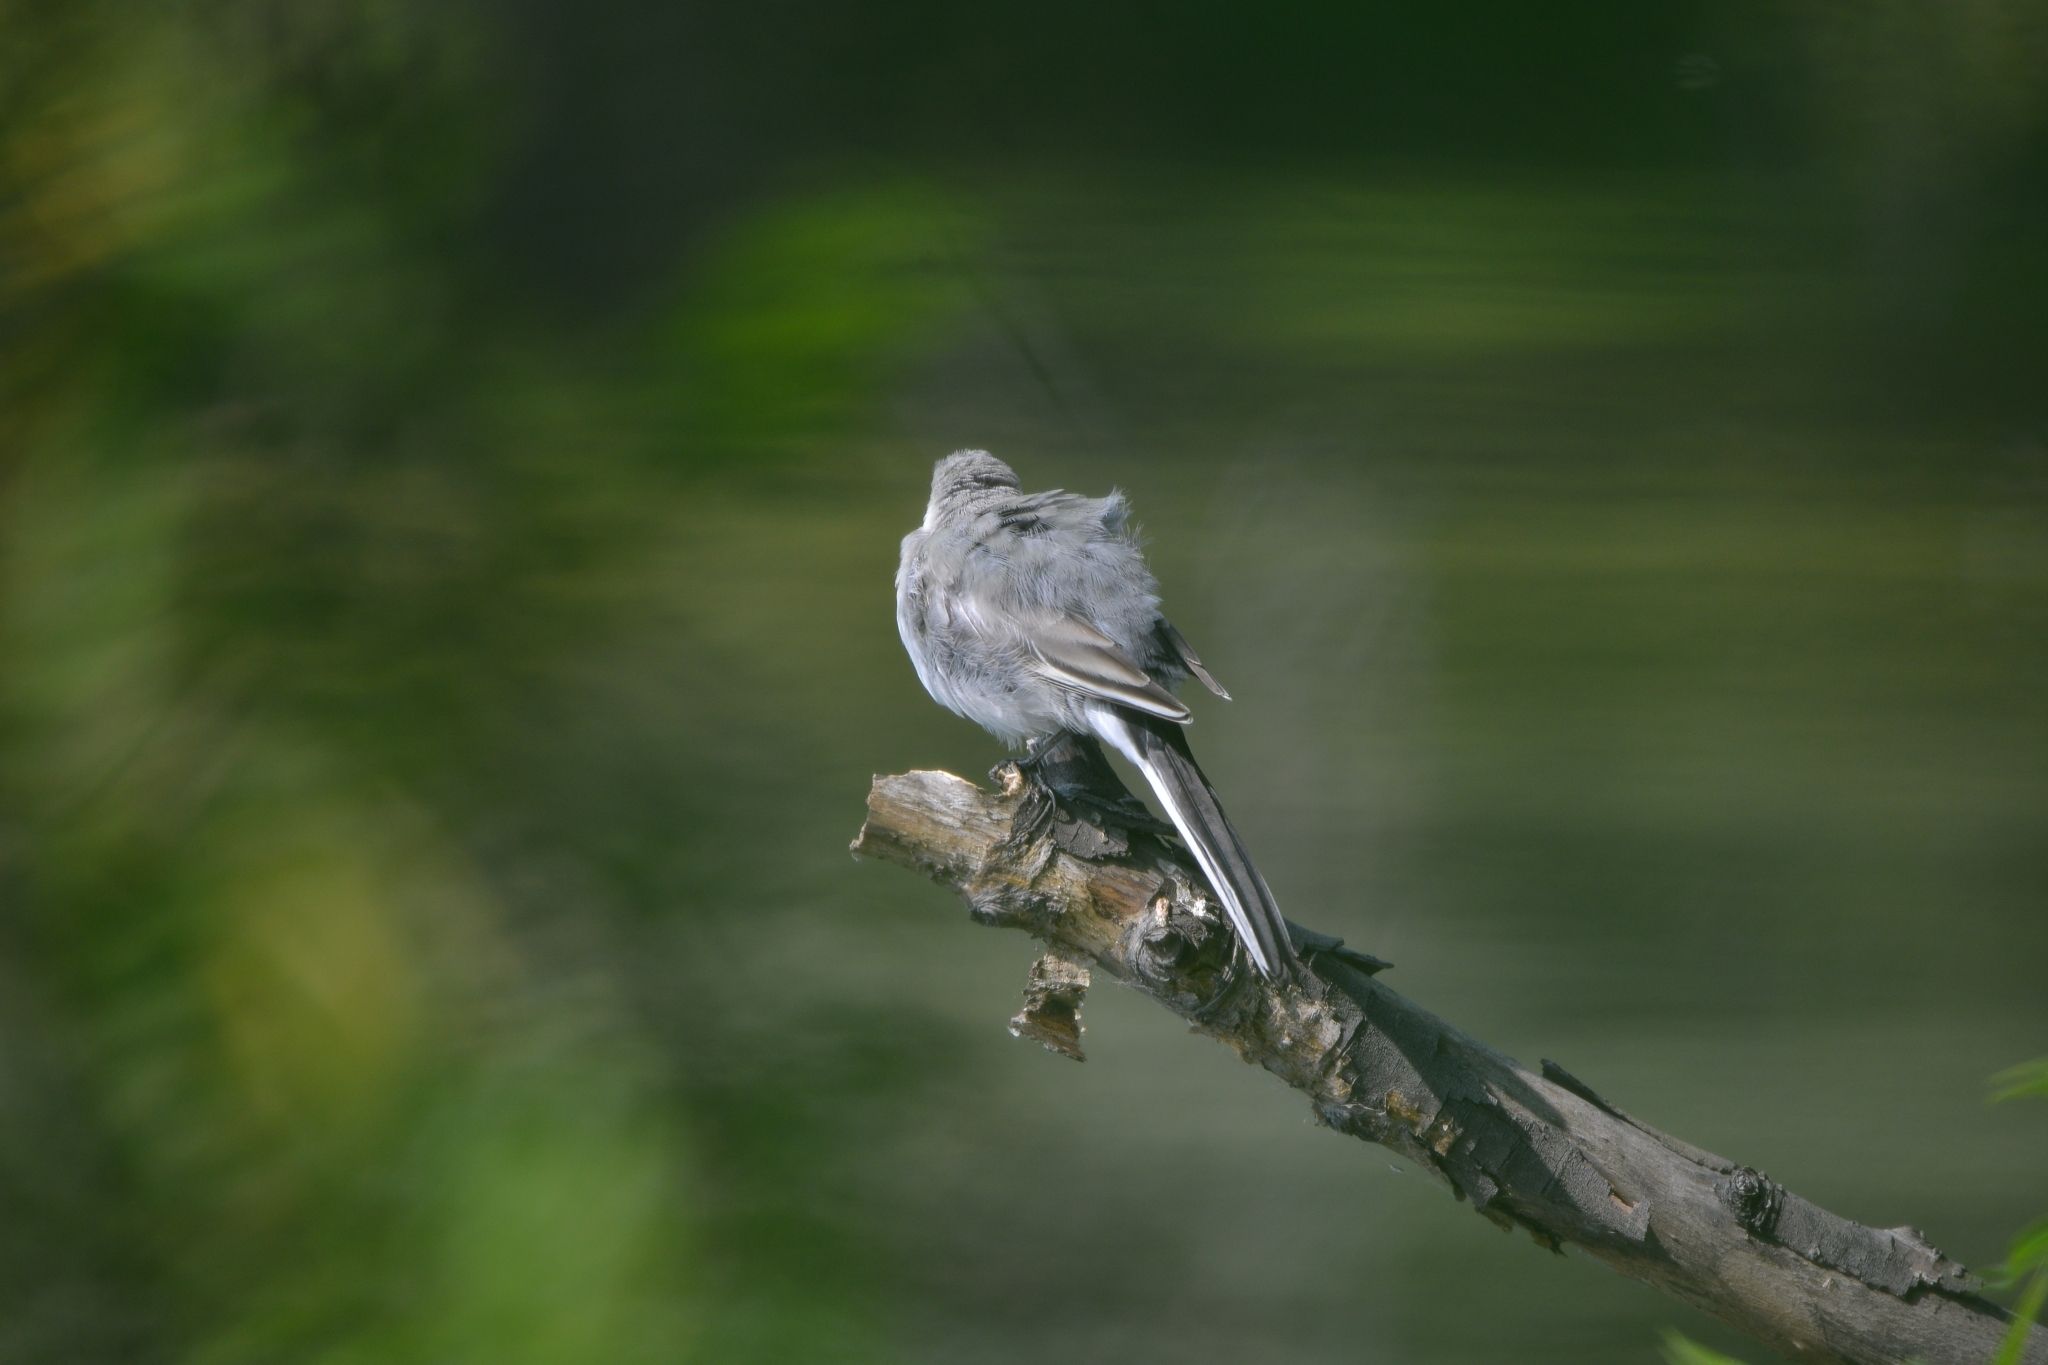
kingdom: Animalia
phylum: Chordata
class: Aves
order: Passeriformes
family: Motacillidae
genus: Motacilla
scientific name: Motacilla alba
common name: White wagtail
